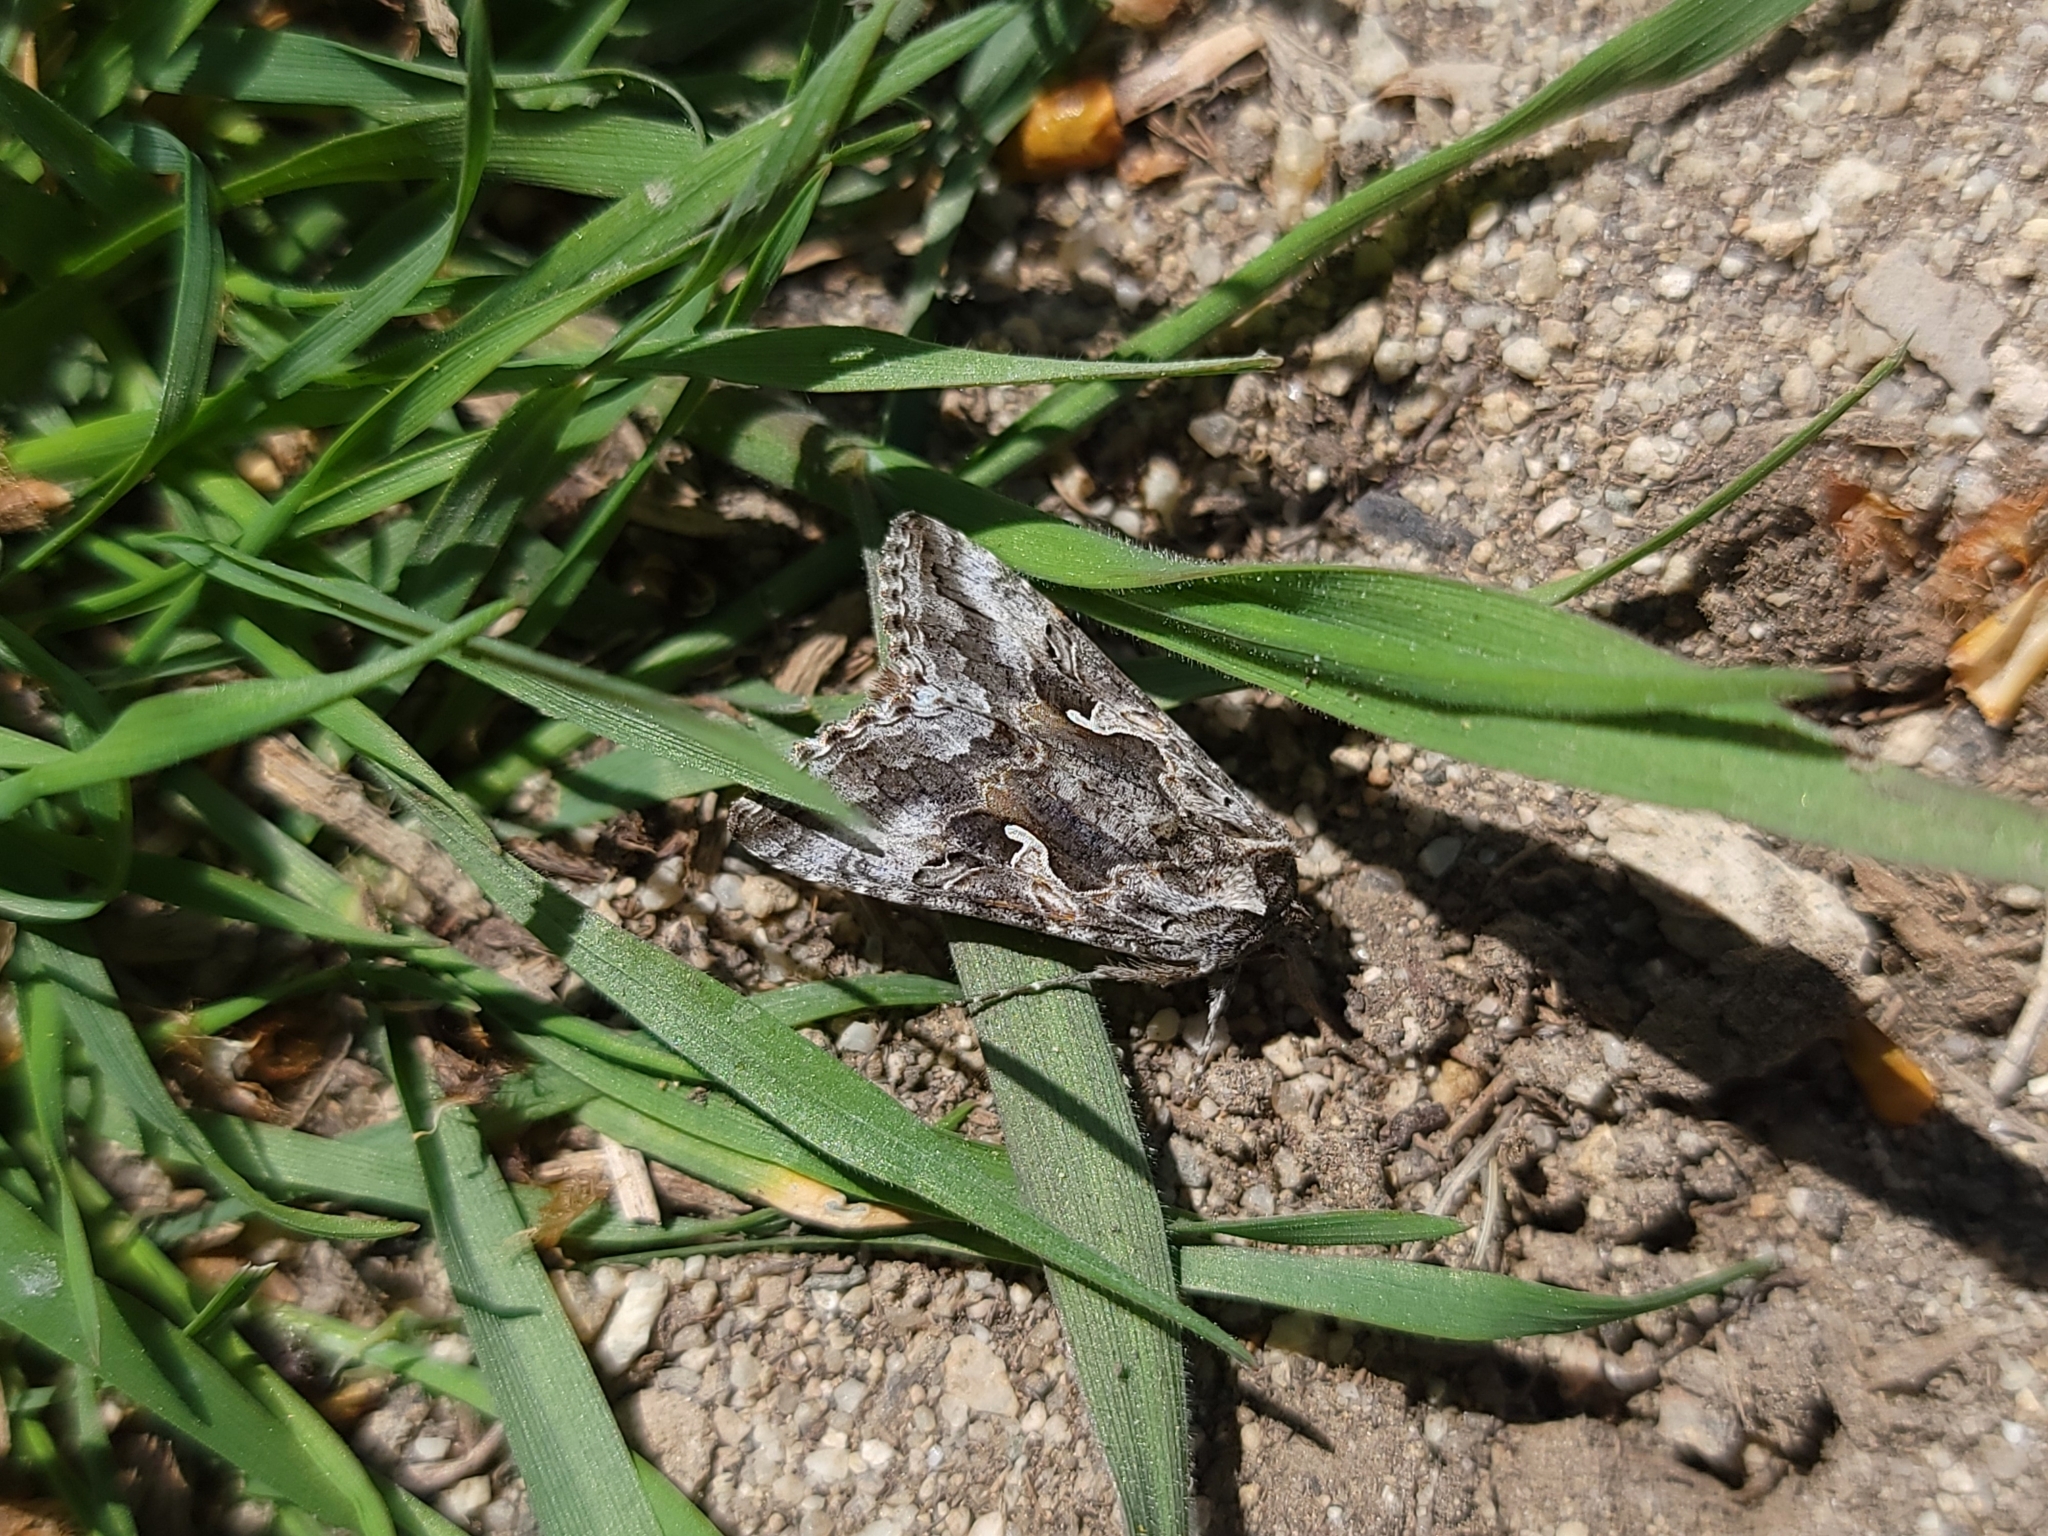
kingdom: Animalia
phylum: Arthropoda
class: Insecta
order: Lepidoptera
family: Noctuidae
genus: Autographa
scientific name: Autographa californica
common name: Alfalfa looper
